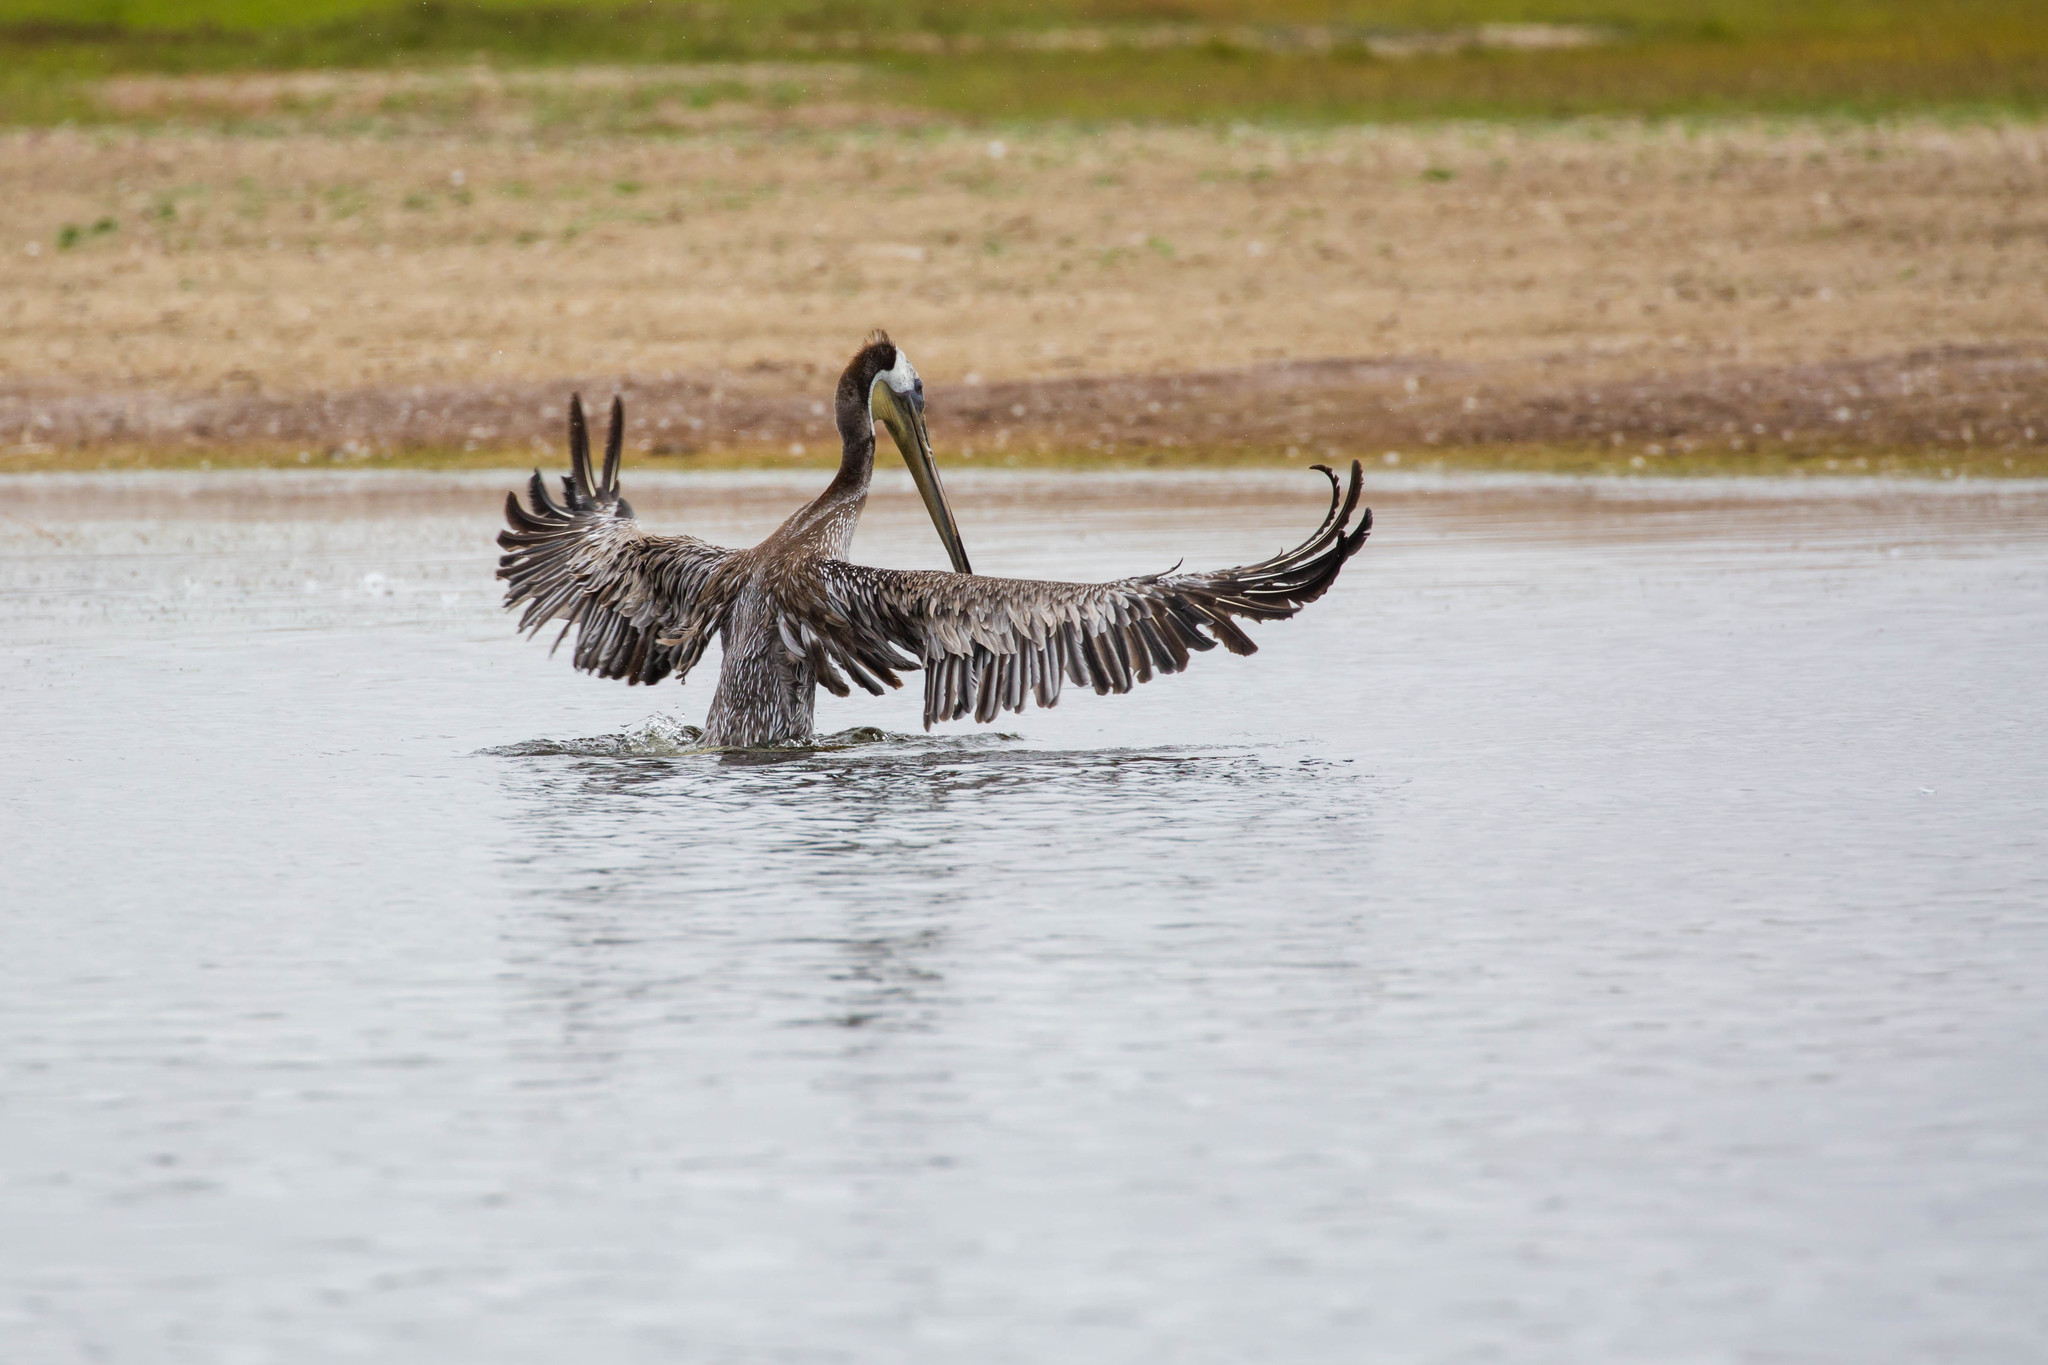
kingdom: Animalia
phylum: Chordata
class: Aves
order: Pelecaniformes
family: Pelecanidae
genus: Pelecanus
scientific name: Pelecanus occidentalis
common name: Brown pelican
